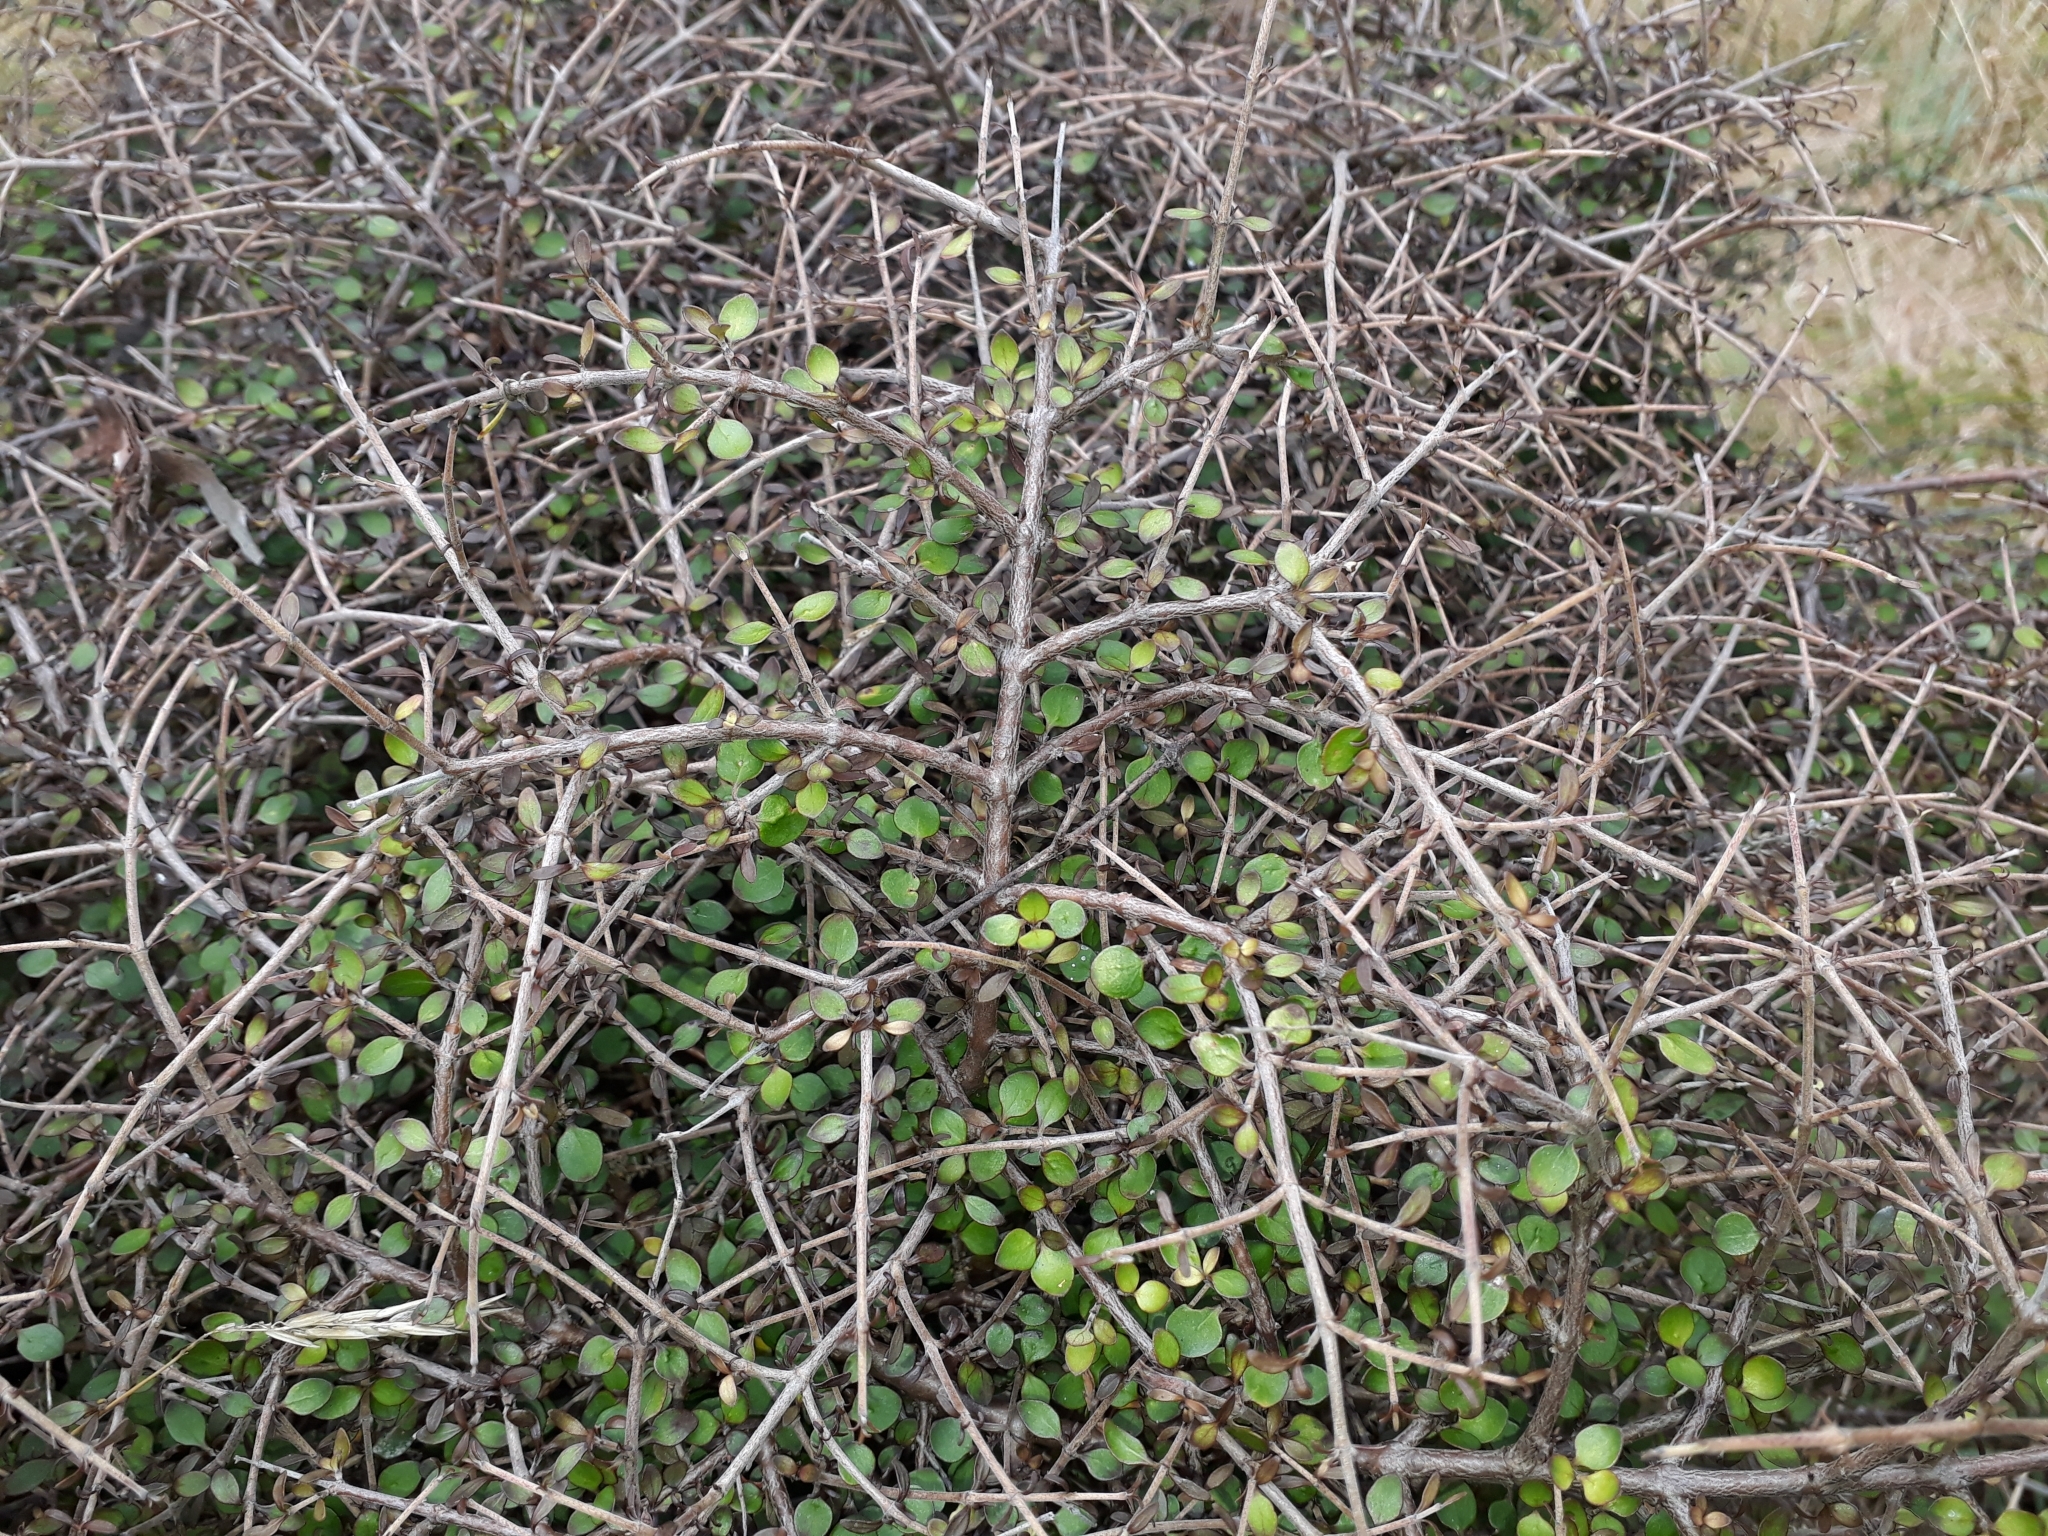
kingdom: Plantae
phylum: Tracheophyta
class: Magnoliopsida
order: Gentianales
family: Rubiaceae
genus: Coprosma
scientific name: Coprosma rhamnoides
